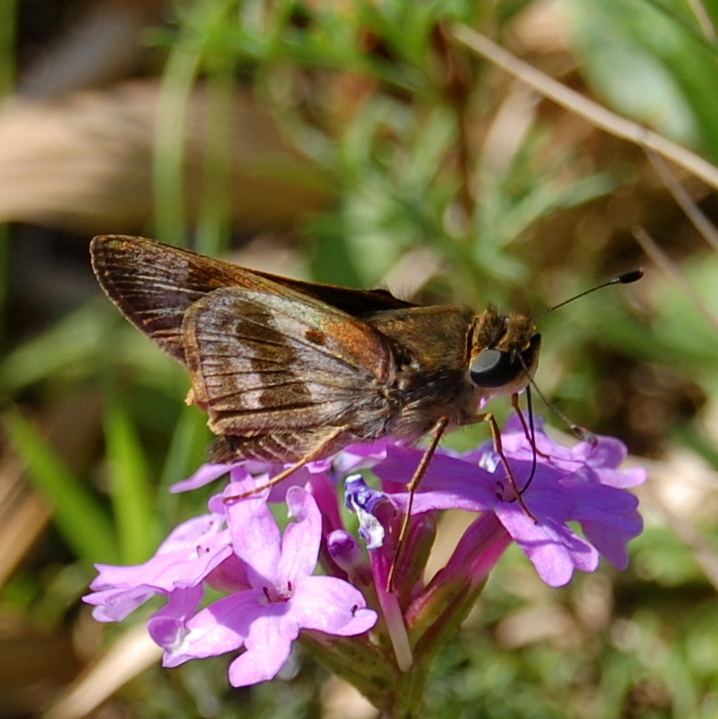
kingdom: Animalia
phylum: Arthropoda
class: Insecta
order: Lepidoptera
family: Hesperiidae
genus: Nyctelius
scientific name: Nyctelius nyctelius
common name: Violet-banded skipper
